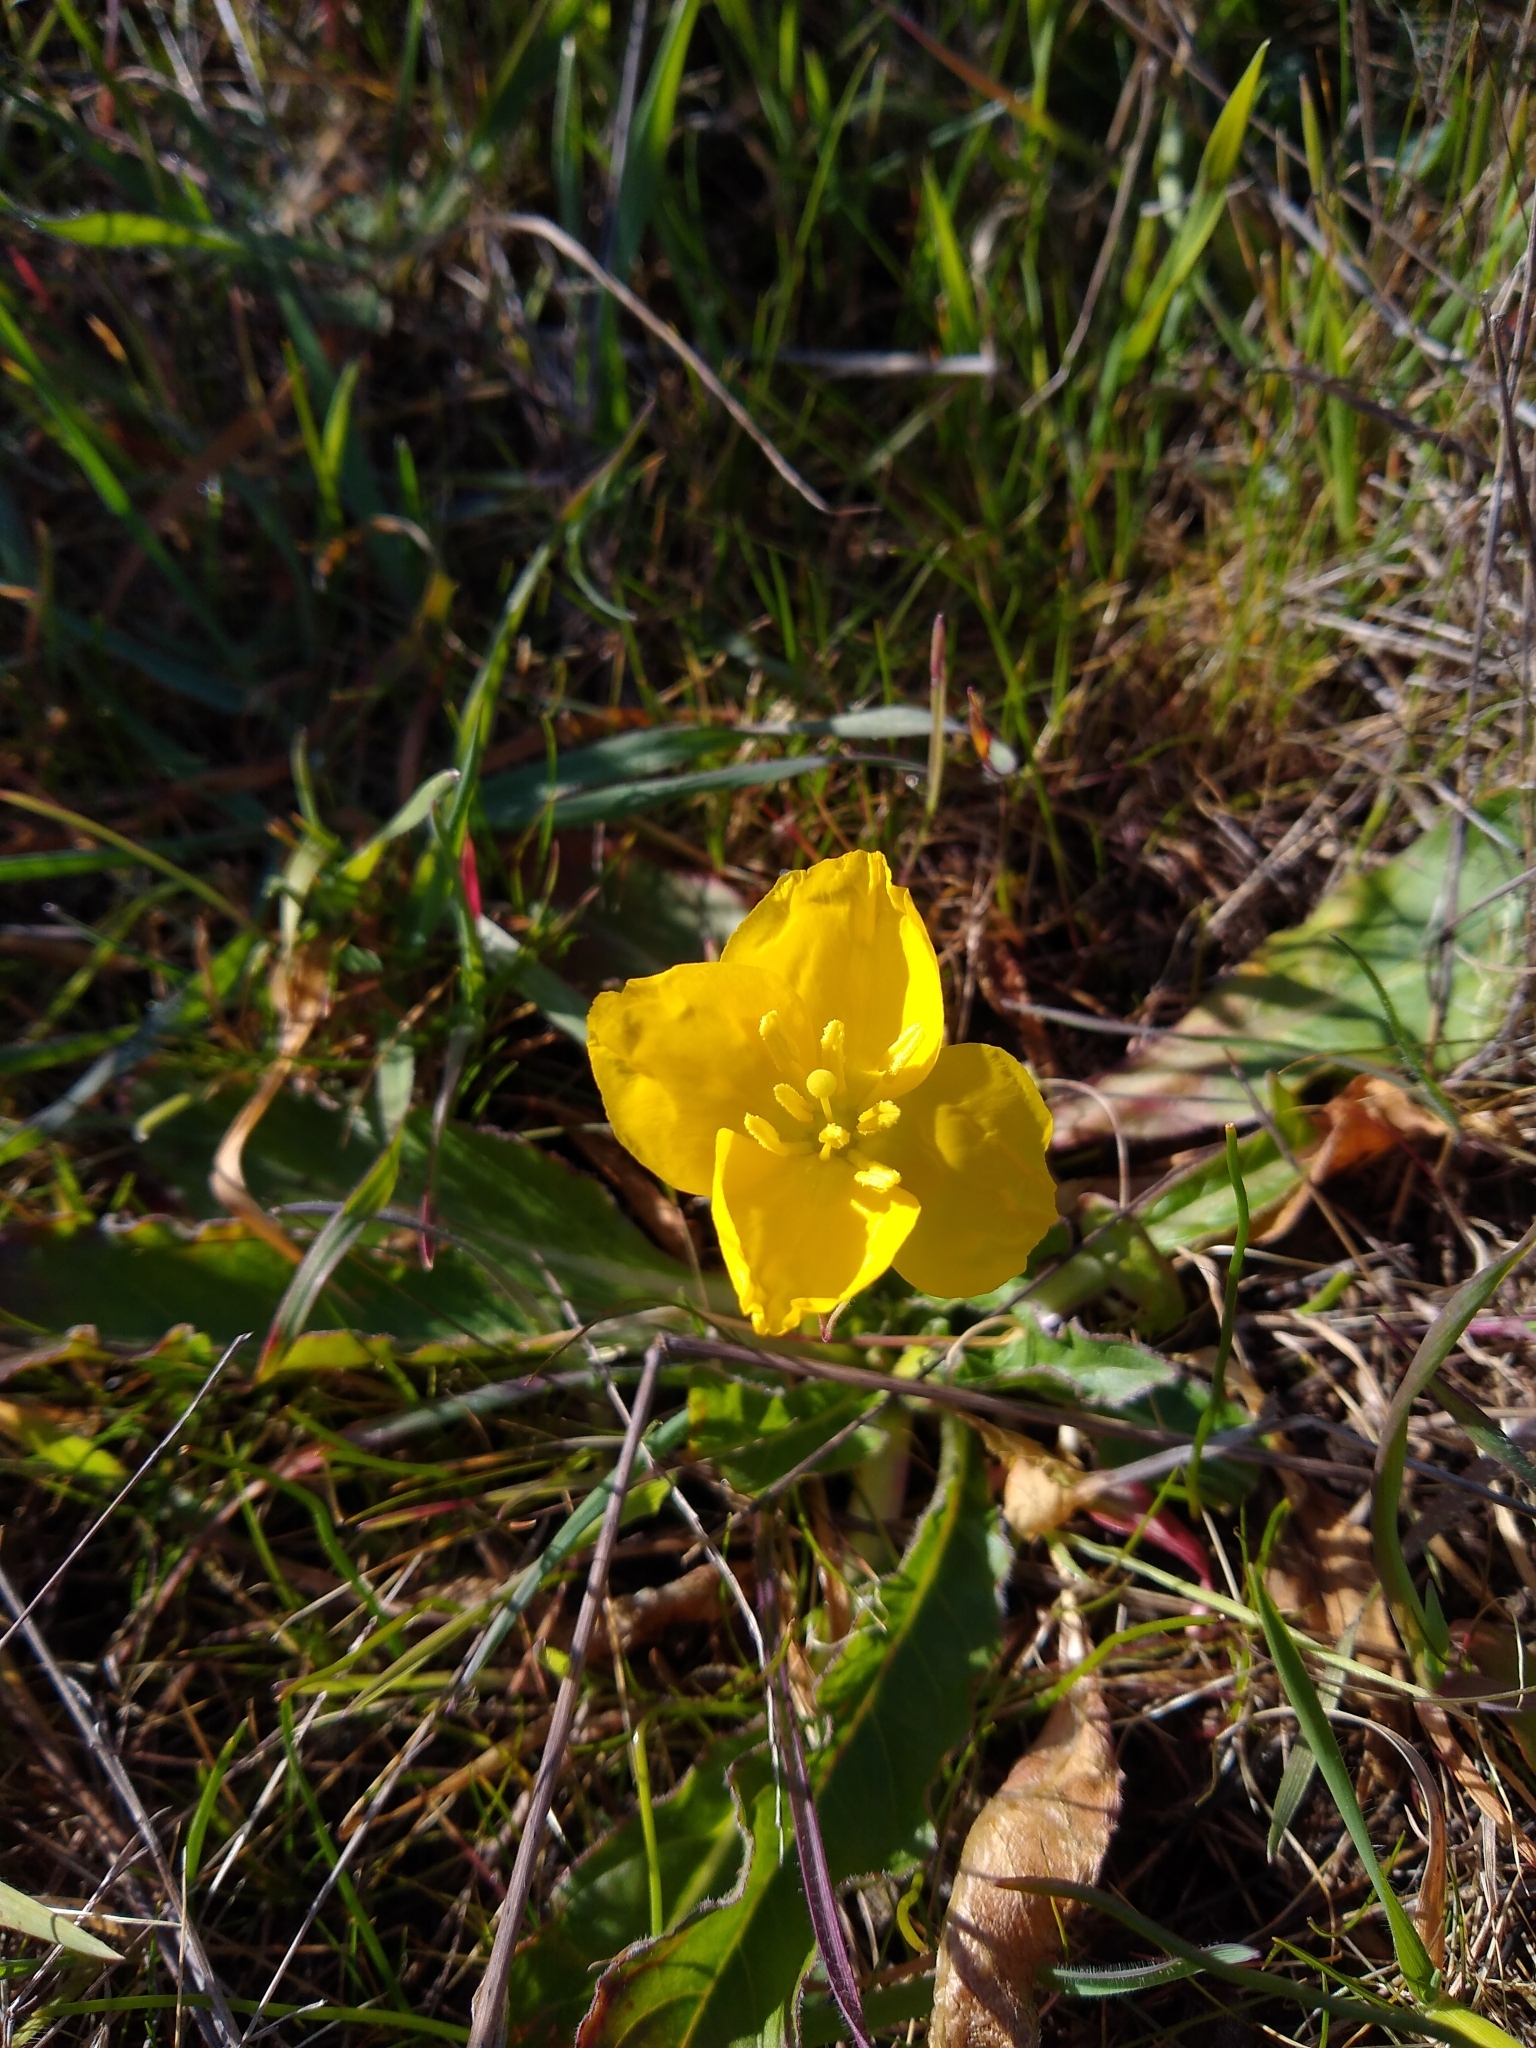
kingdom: Plantae
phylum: Tracheophyta
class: Magnoliopsida
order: Myrtales
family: Onagraceae
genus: Taraxia
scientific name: Taraxia ovata
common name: Goldeneggs
